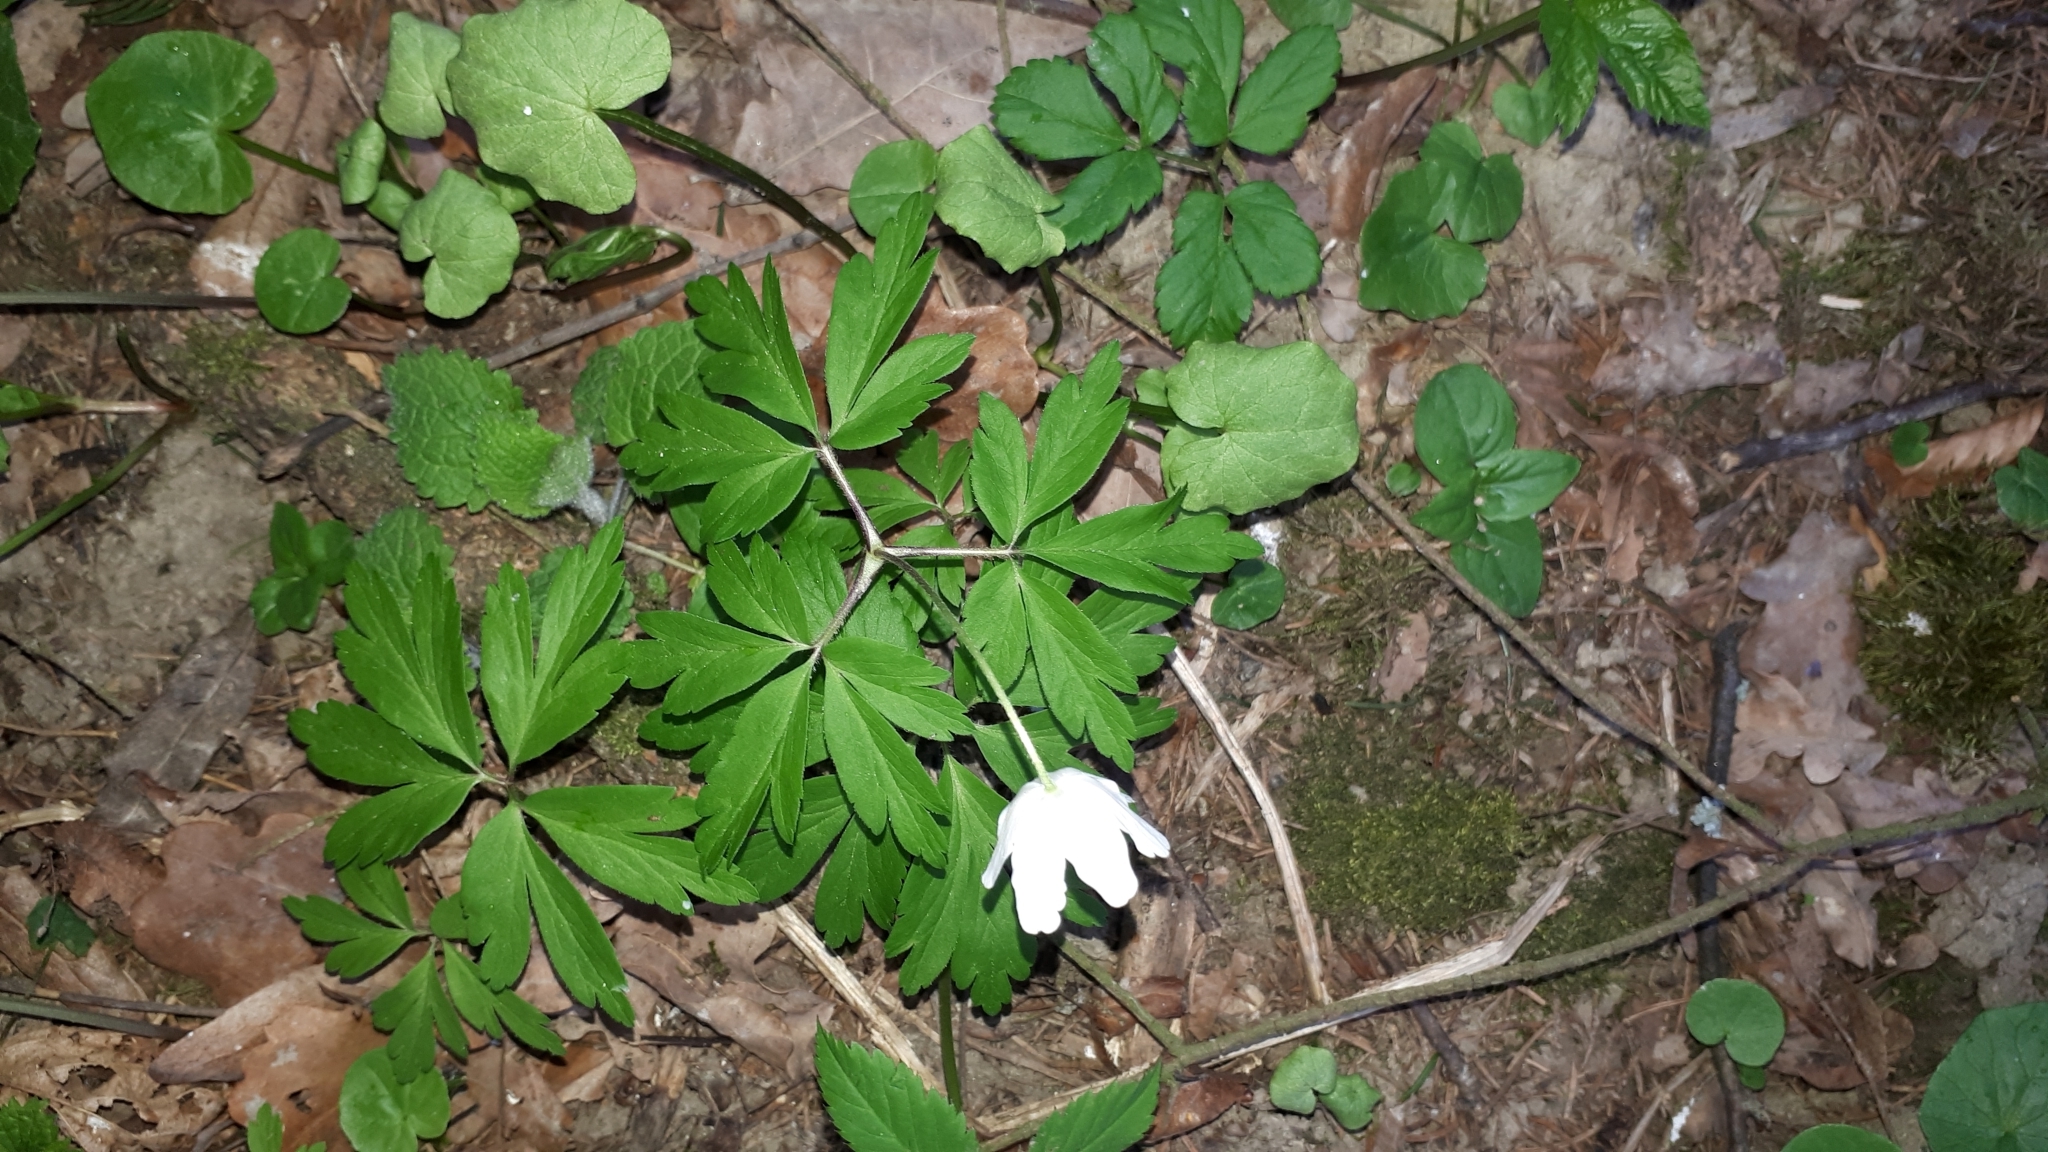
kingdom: Plantae
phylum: Tracheophyta
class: Magnoliopsida
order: Ranunculales
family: Ranunculaceae
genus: Anemone
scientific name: Anemone nemorosa
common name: Wood anemone
